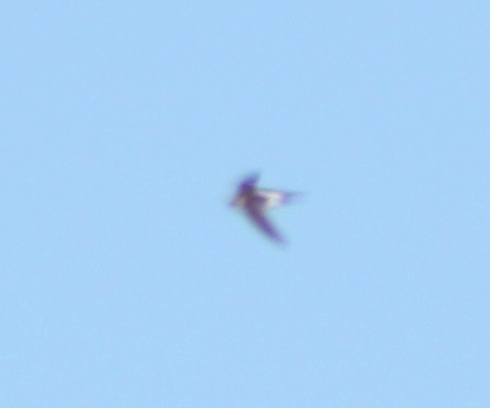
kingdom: Animalia
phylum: Chordata
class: Aves
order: Apodiformes
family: Apodidae
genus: Aeronautes
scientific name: Aeronautes saxatalis
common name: White-throated swift
